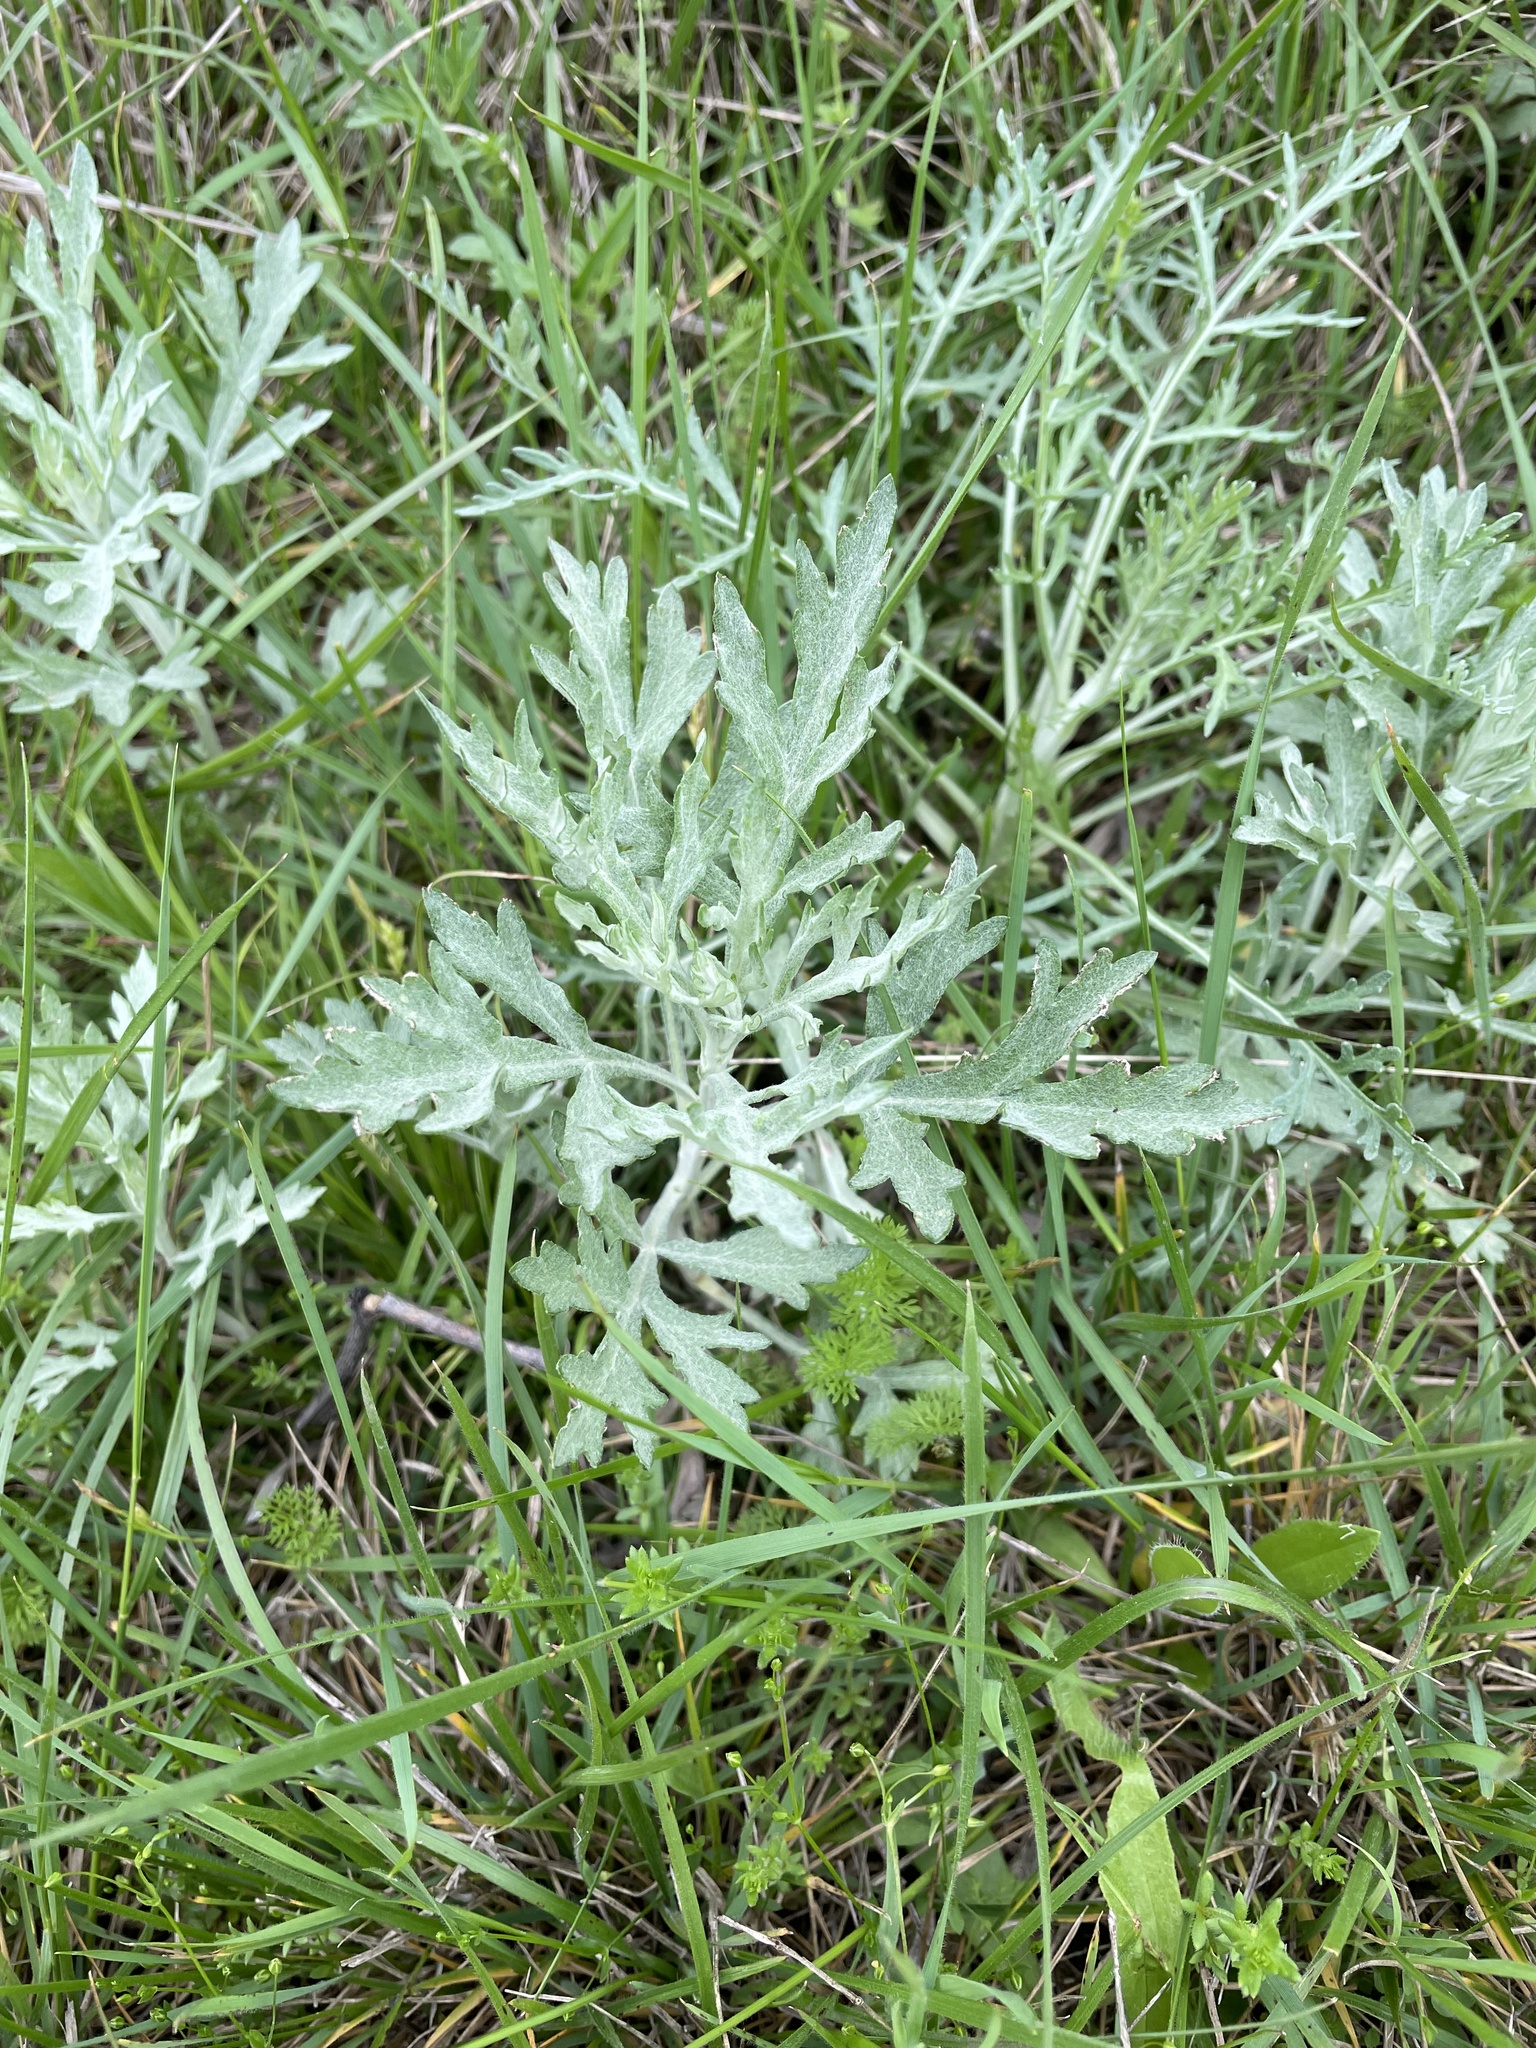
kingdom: Plantae
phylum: Tracheophyta
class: Magnoliopsida
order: Asterales
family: Asteraceae
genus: Artemisia
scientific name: Artemisia ludoviciana
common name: Western mugwort
